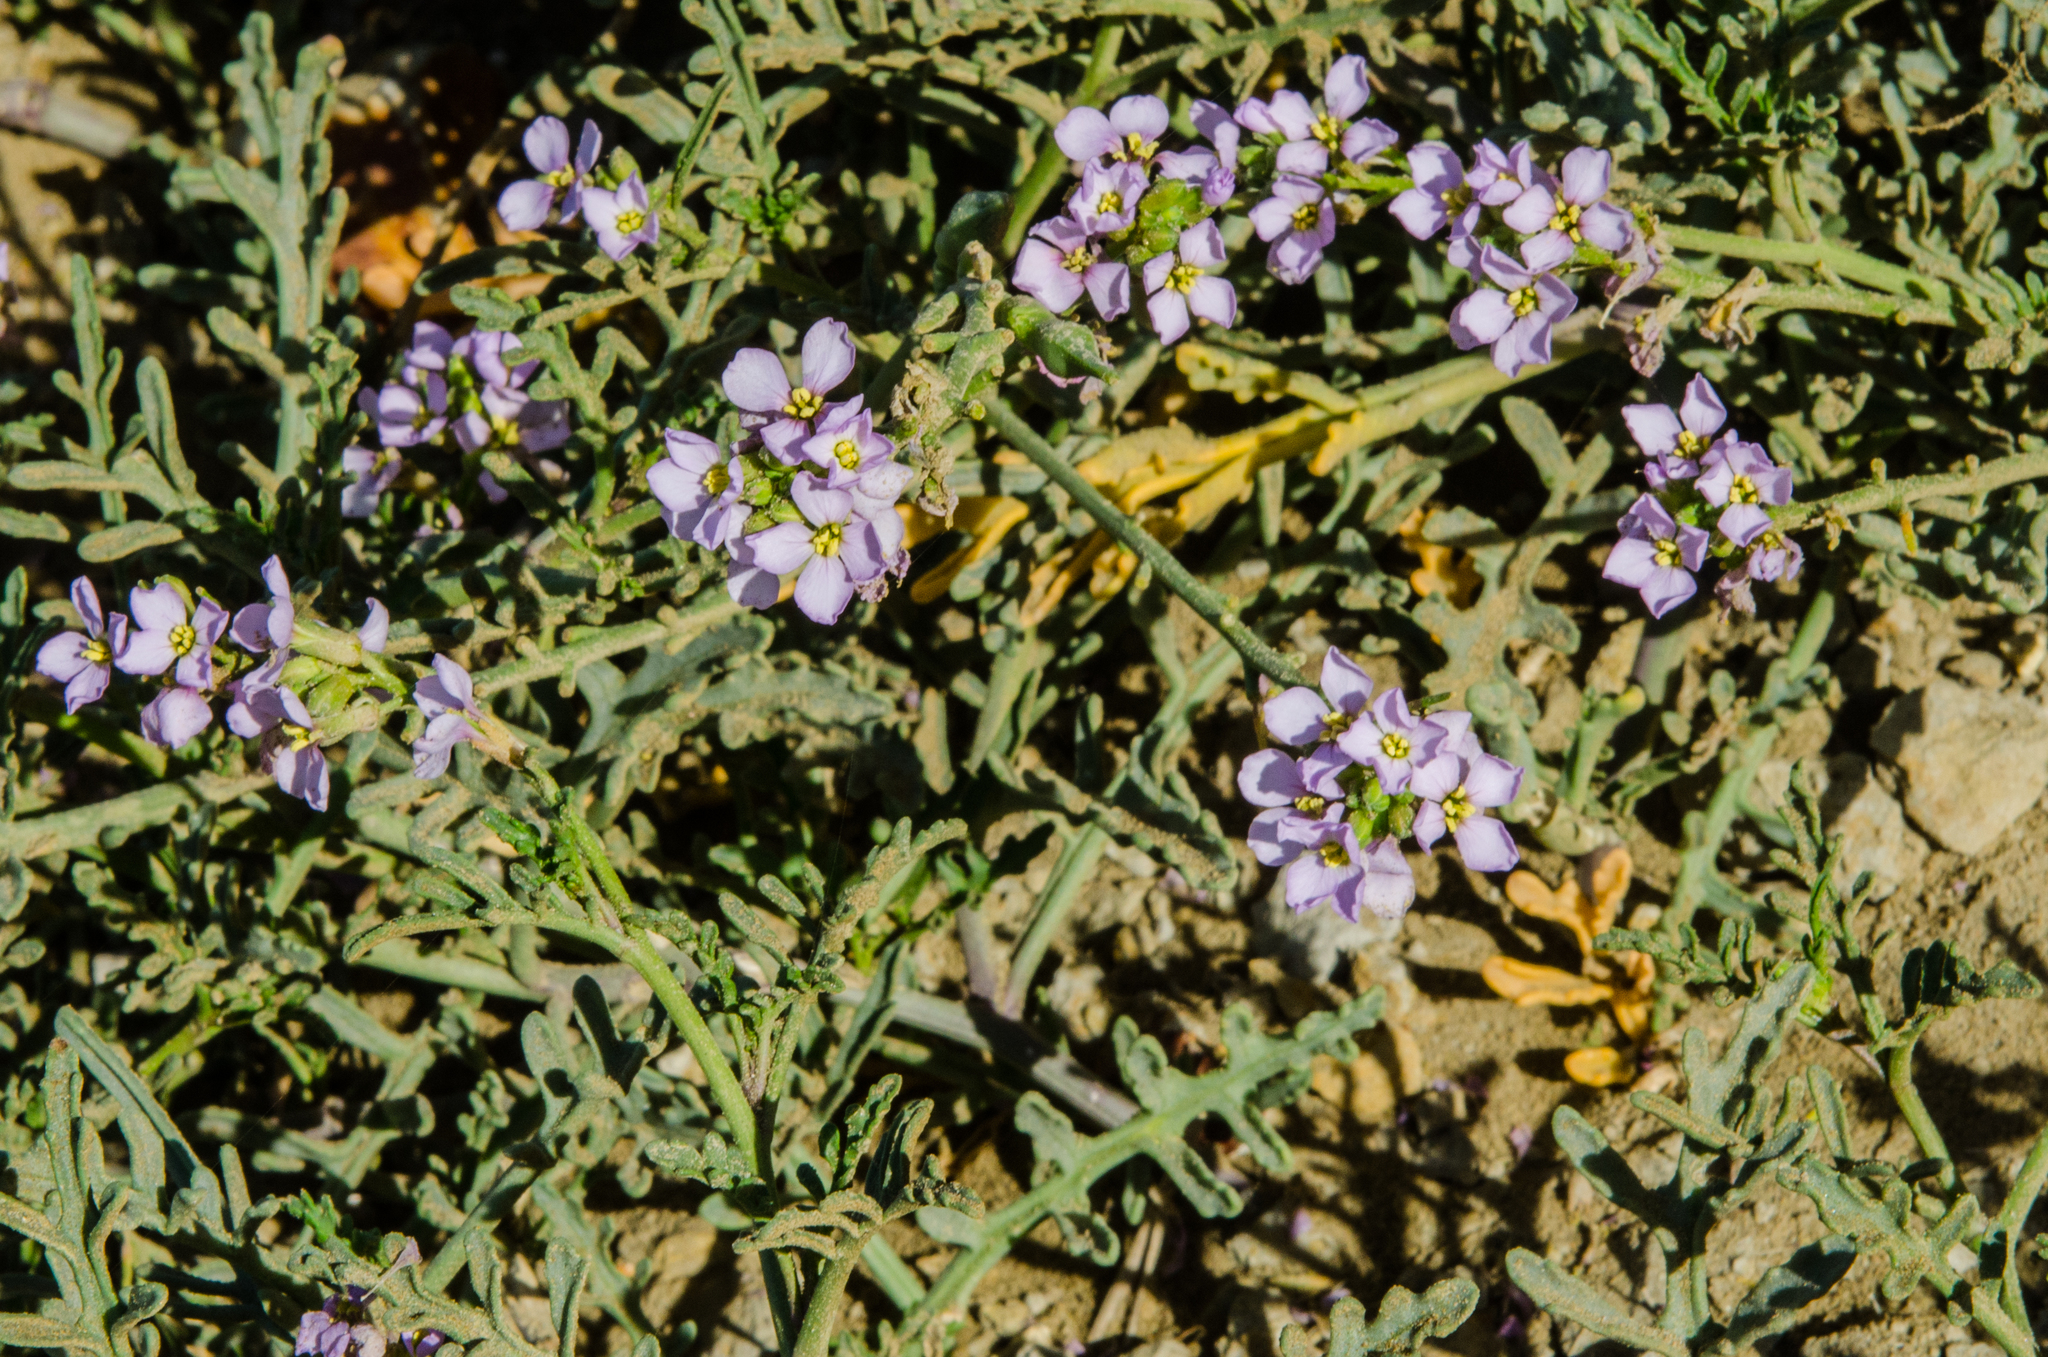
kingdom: Plantae
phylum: Tracheophyta
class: Magnoliopsida
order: Brassicales
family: Brassicaceae
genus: Cakile
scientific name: Cakile maritima
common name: Sea rocket
